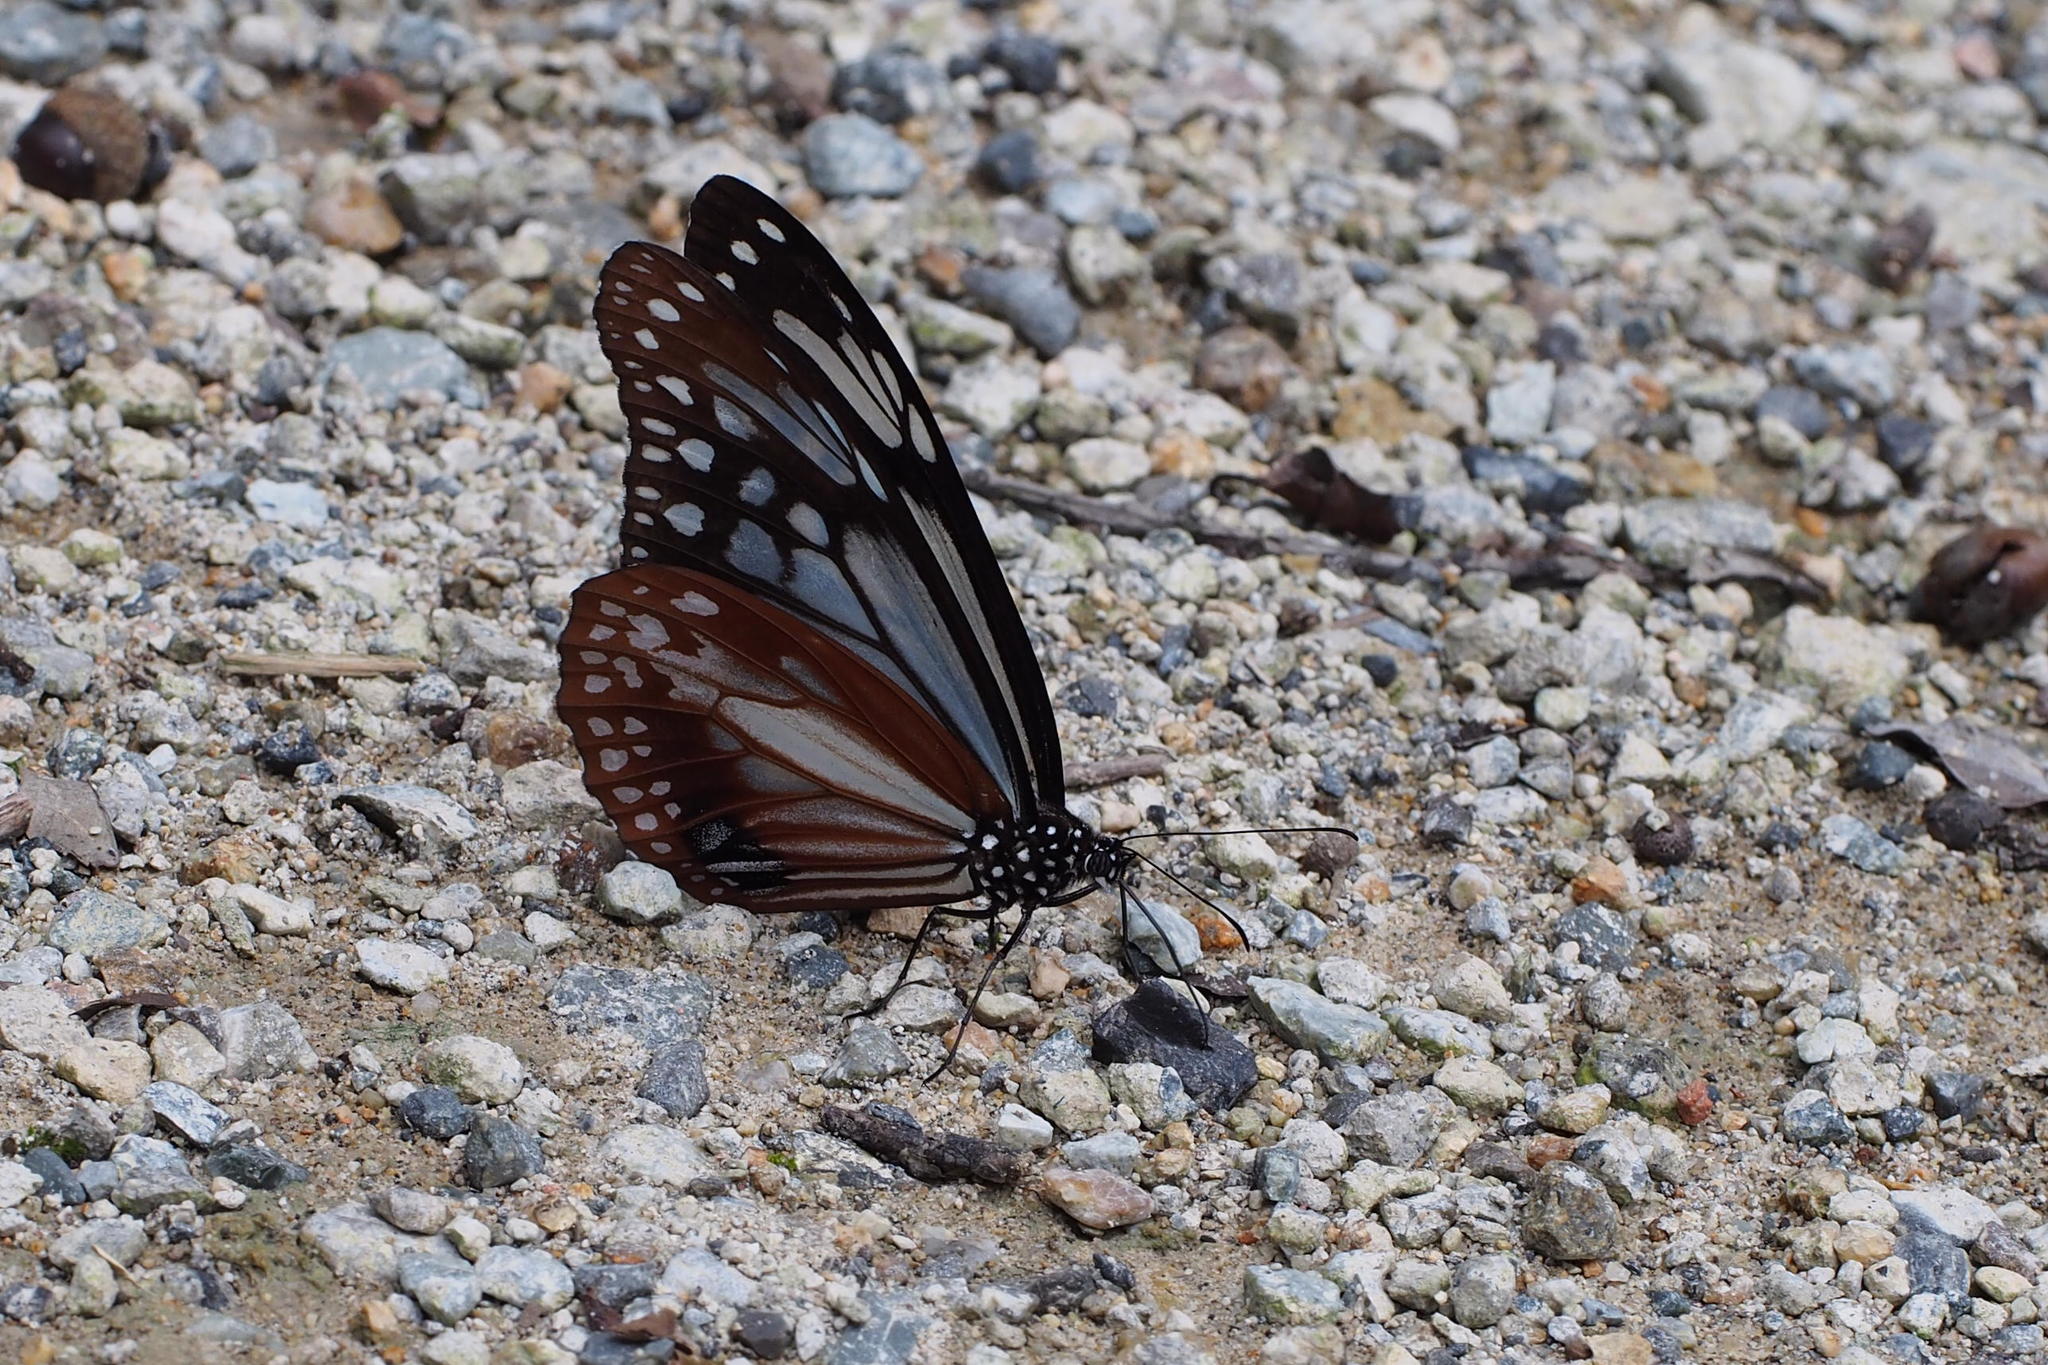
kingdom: Animalia
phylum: Arthropoda
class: Insecta
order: Lepidoptera
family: Nymphalidae
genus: Parantica
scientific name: Parantica sita
